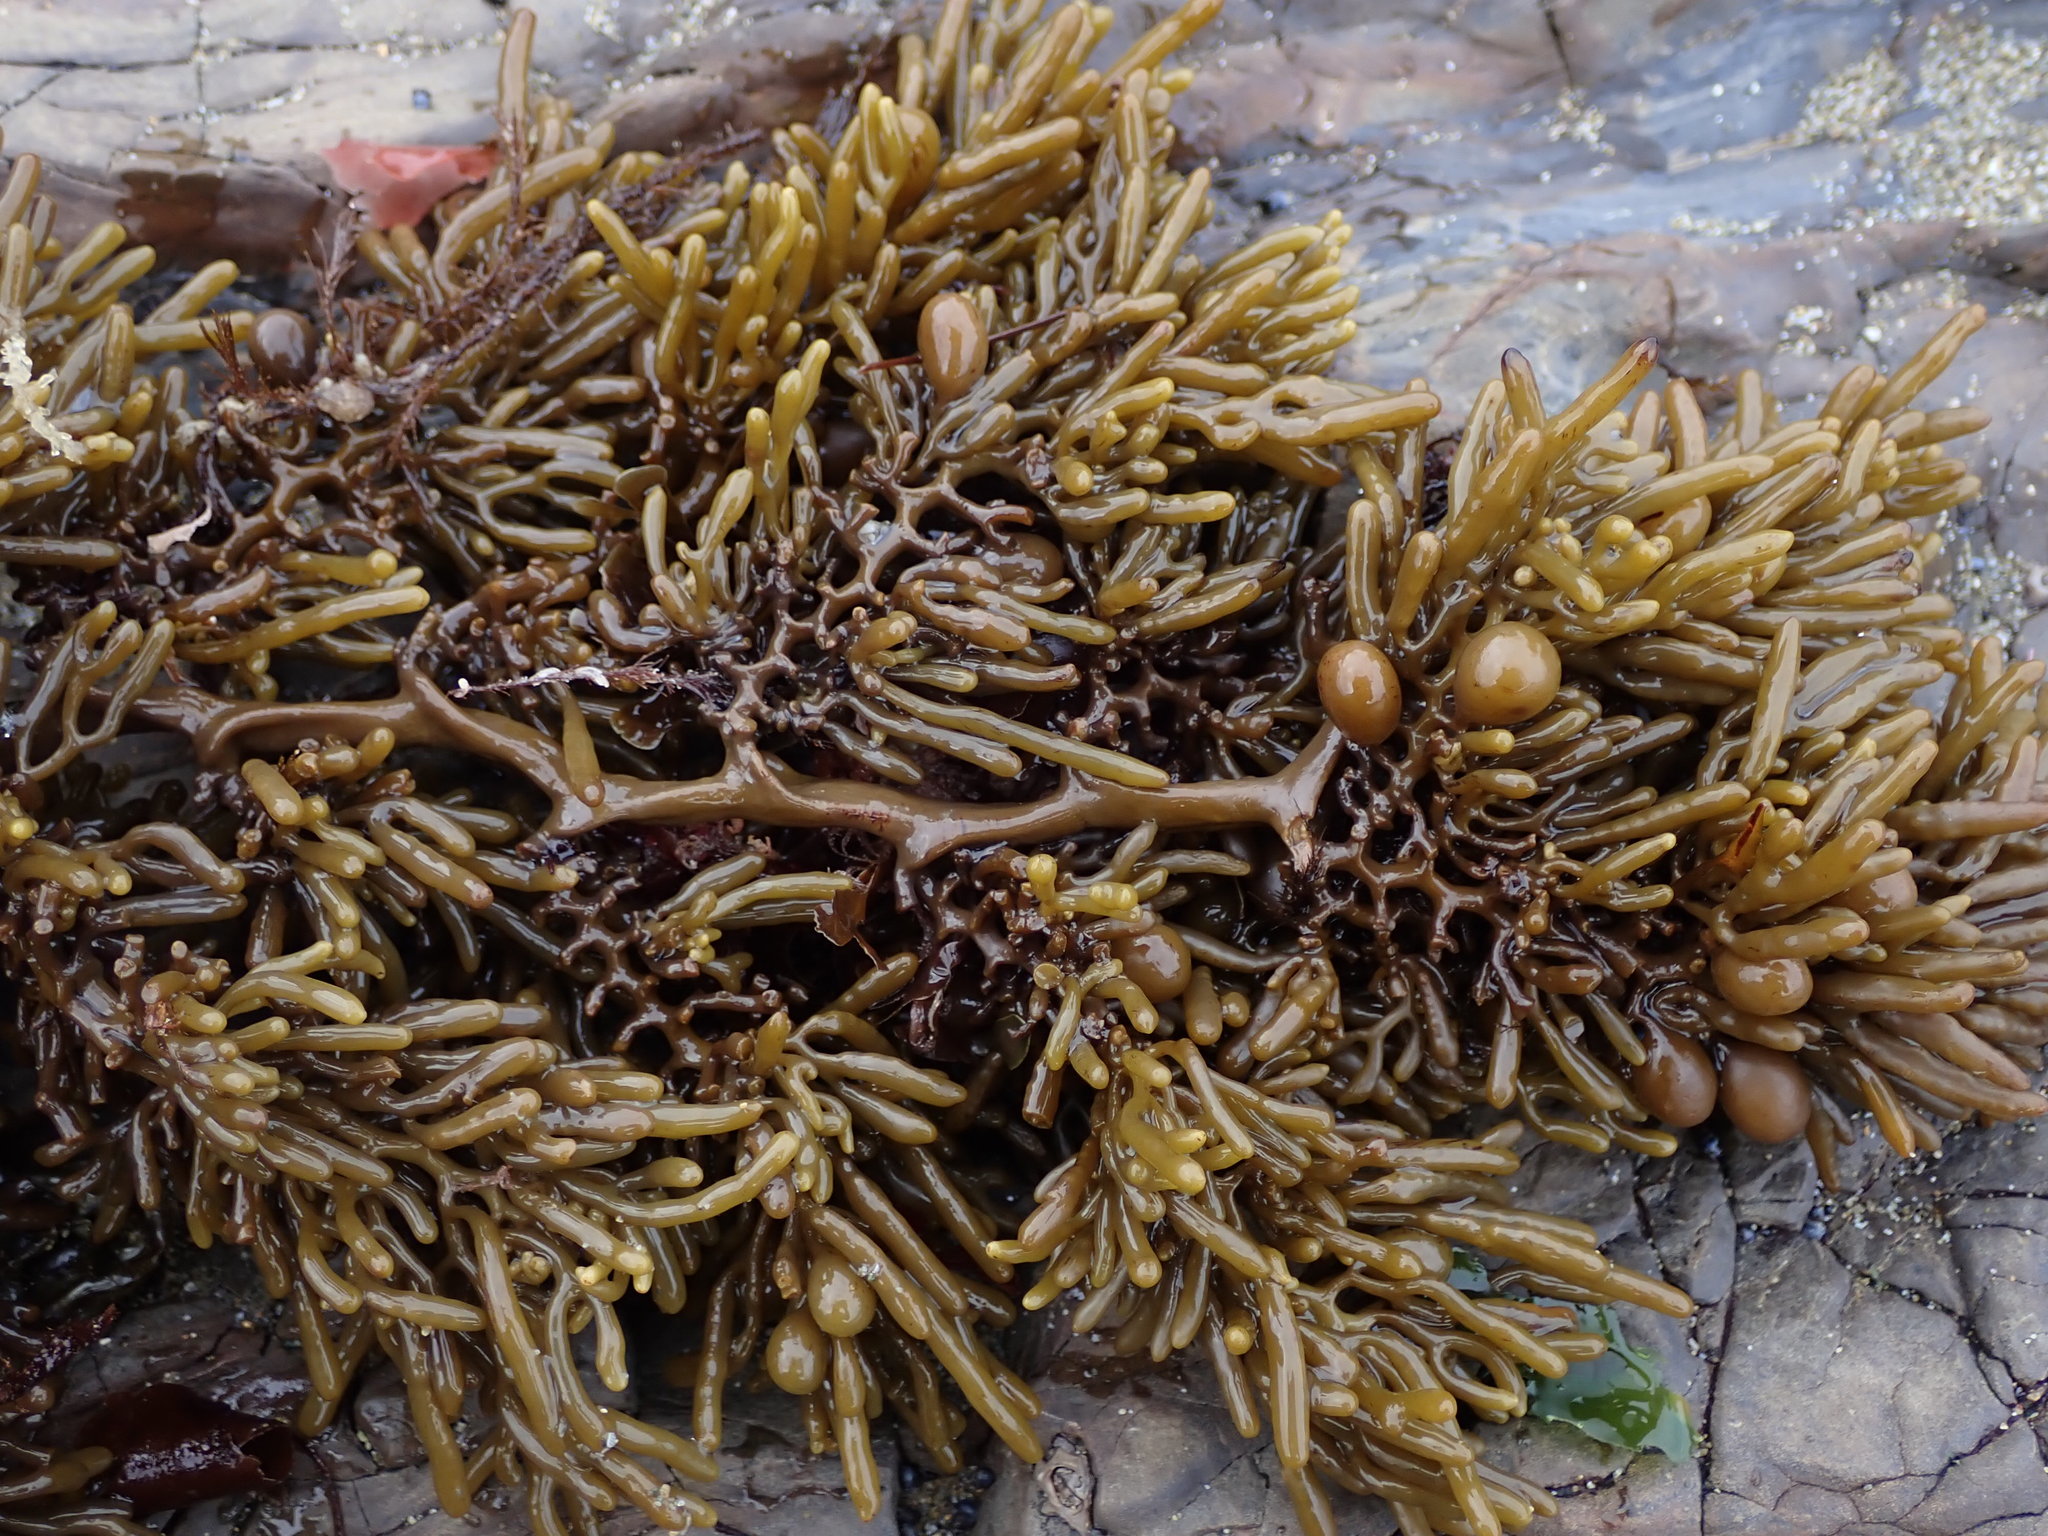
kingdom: Chromista
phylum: Ochrophyta
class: Phaeophyceae
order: Fucales
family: Sargassaceae
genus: Cystophora
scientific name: Cystophora torulosa
